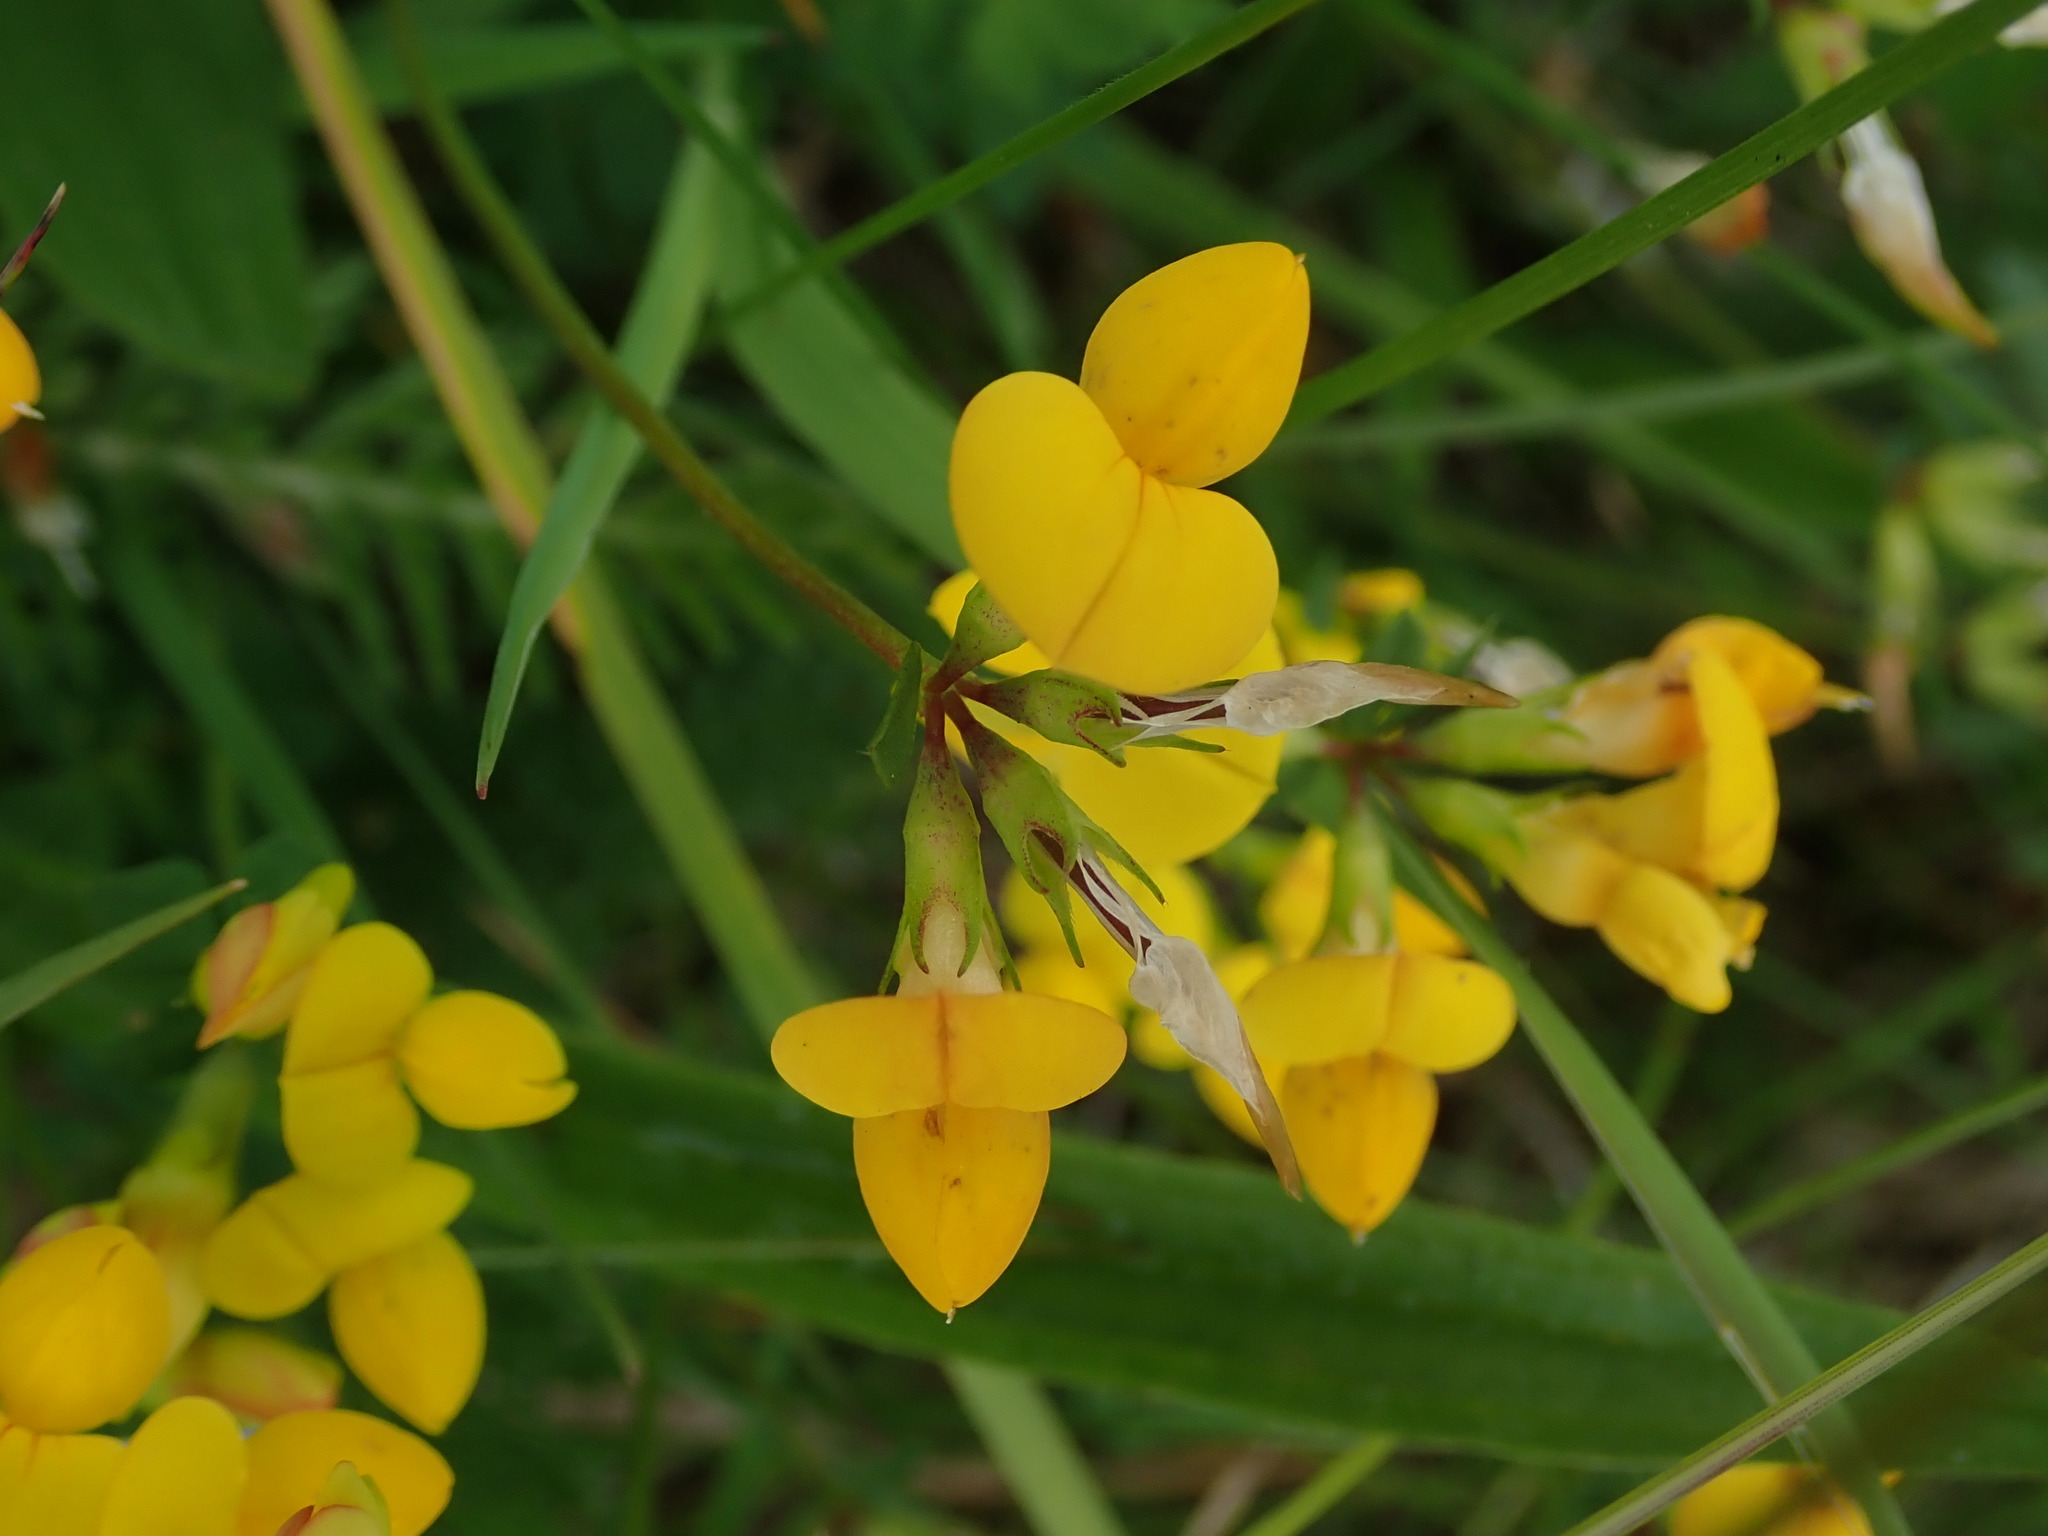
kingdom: Plantae
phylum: Tracheophyta
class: Magnoliopsida
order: Fabales
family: Fabaceae
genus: Lotus
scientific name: Lotus corniculatus
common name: Common bird's-foot-trefoil
